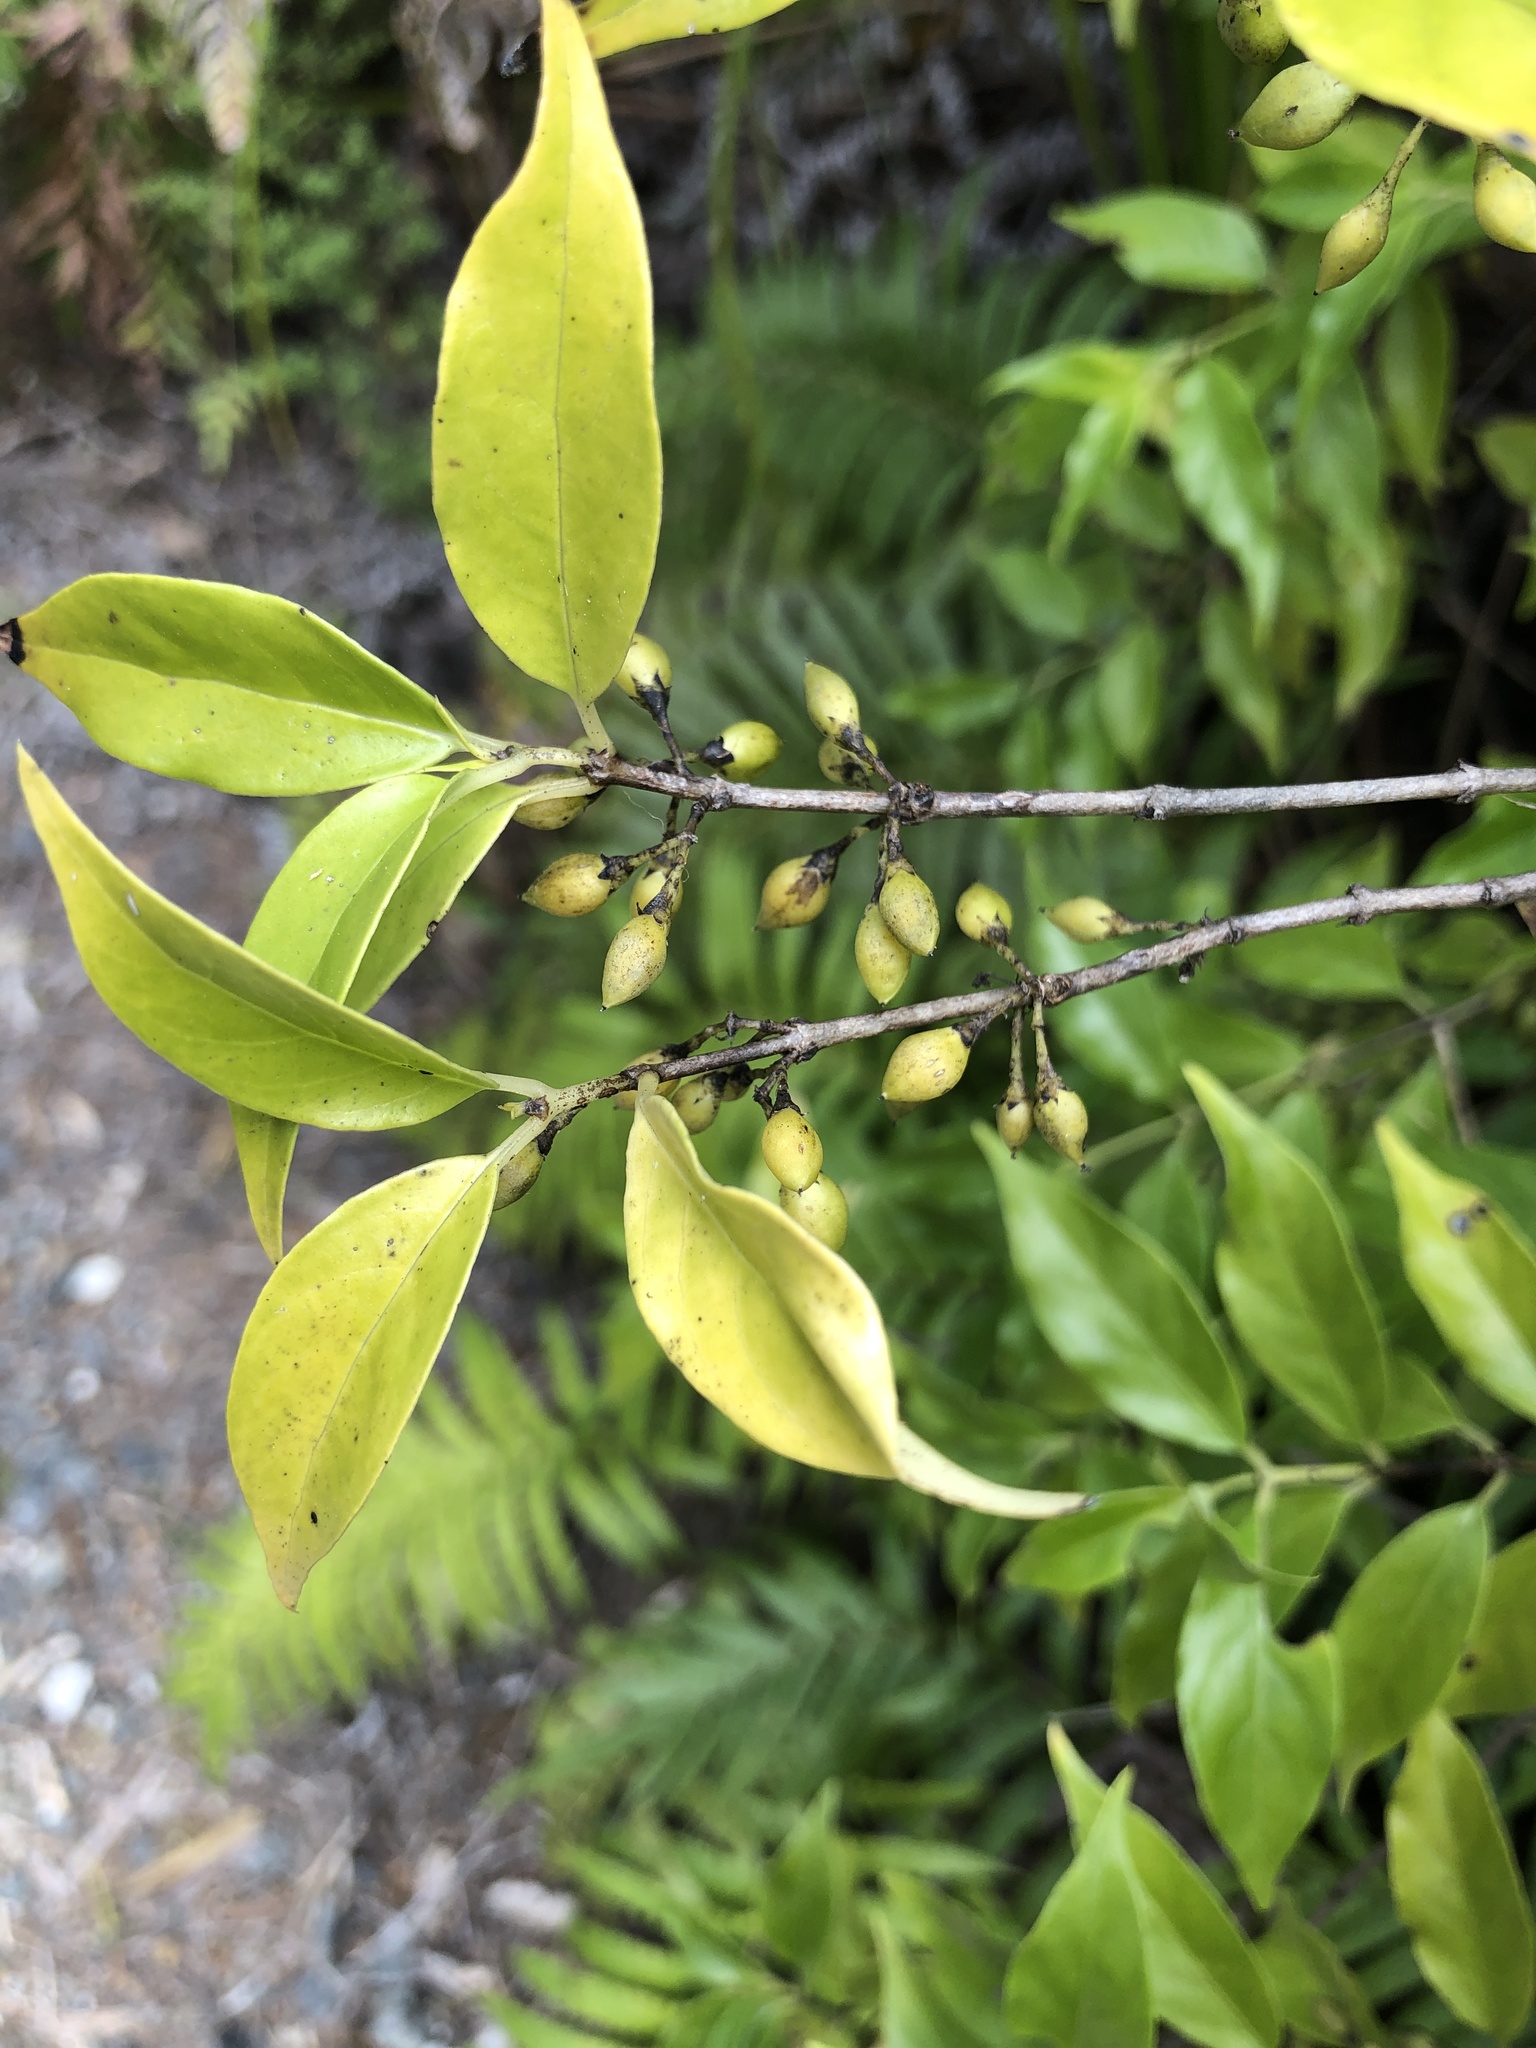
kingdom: Plantae
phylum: Tracheophyta
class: Magnoliopsida
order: Gentianales
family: Loganiaceae
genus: Geniostoma
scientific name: Geniostoma ligustrifolium
